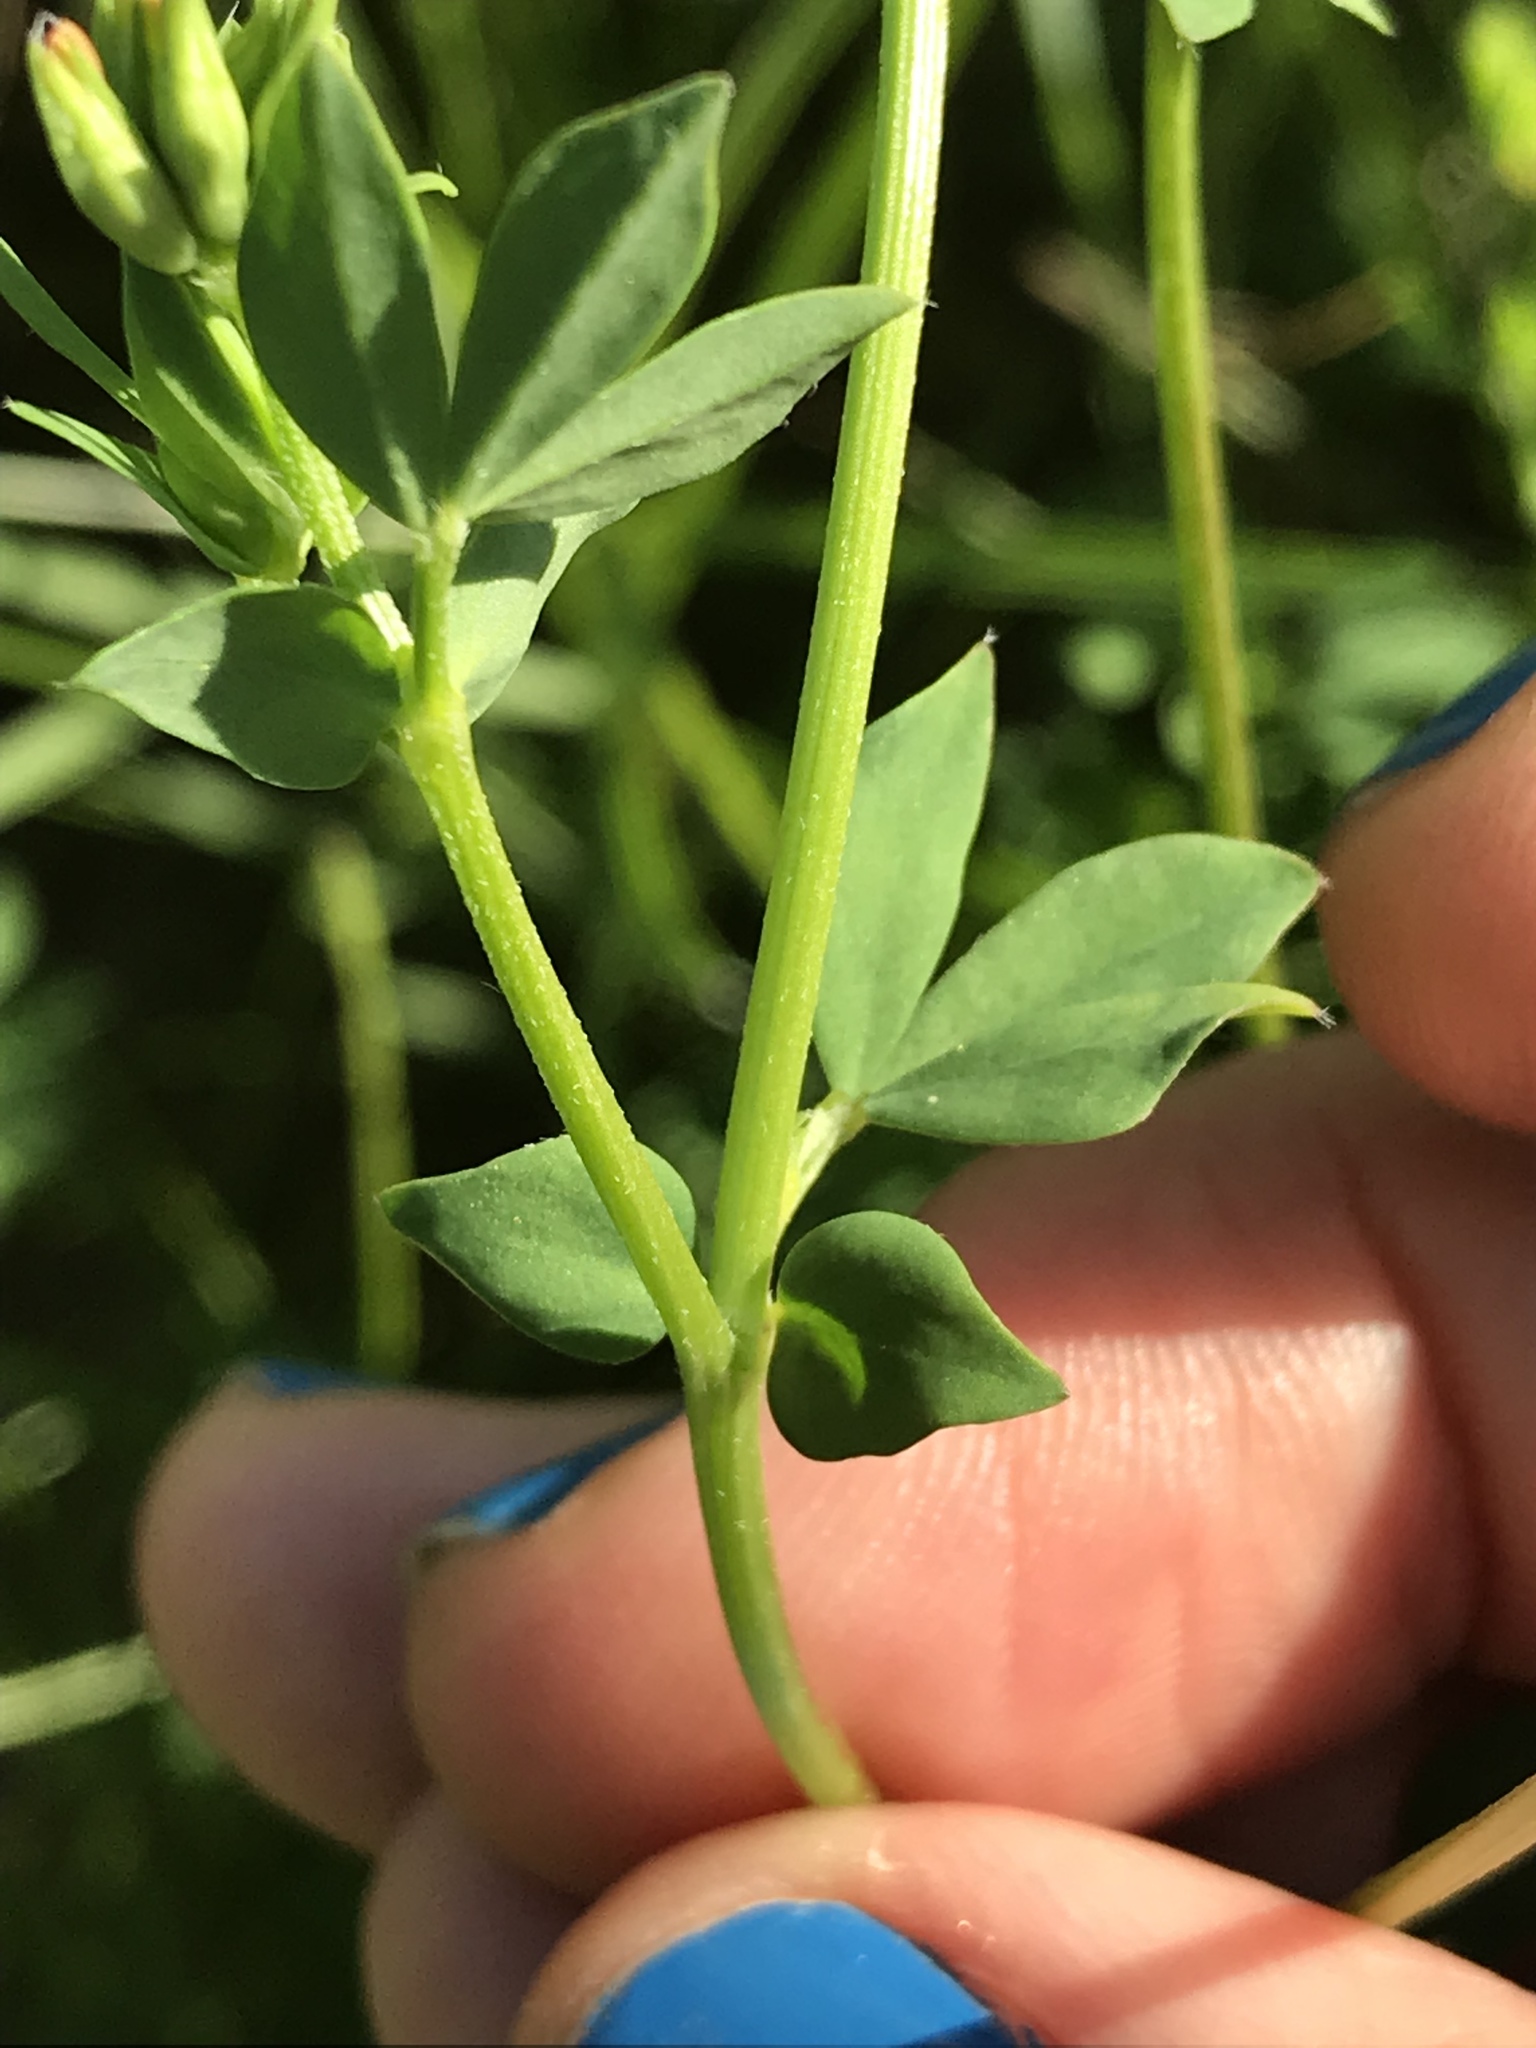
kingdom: Plantae
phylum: Tracheophyta
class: Magnoliopsida
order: Fabales
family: Fabaceae
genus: Lotus
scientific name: Lotus corniculatus
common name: Common bird's-foot-trefoil
